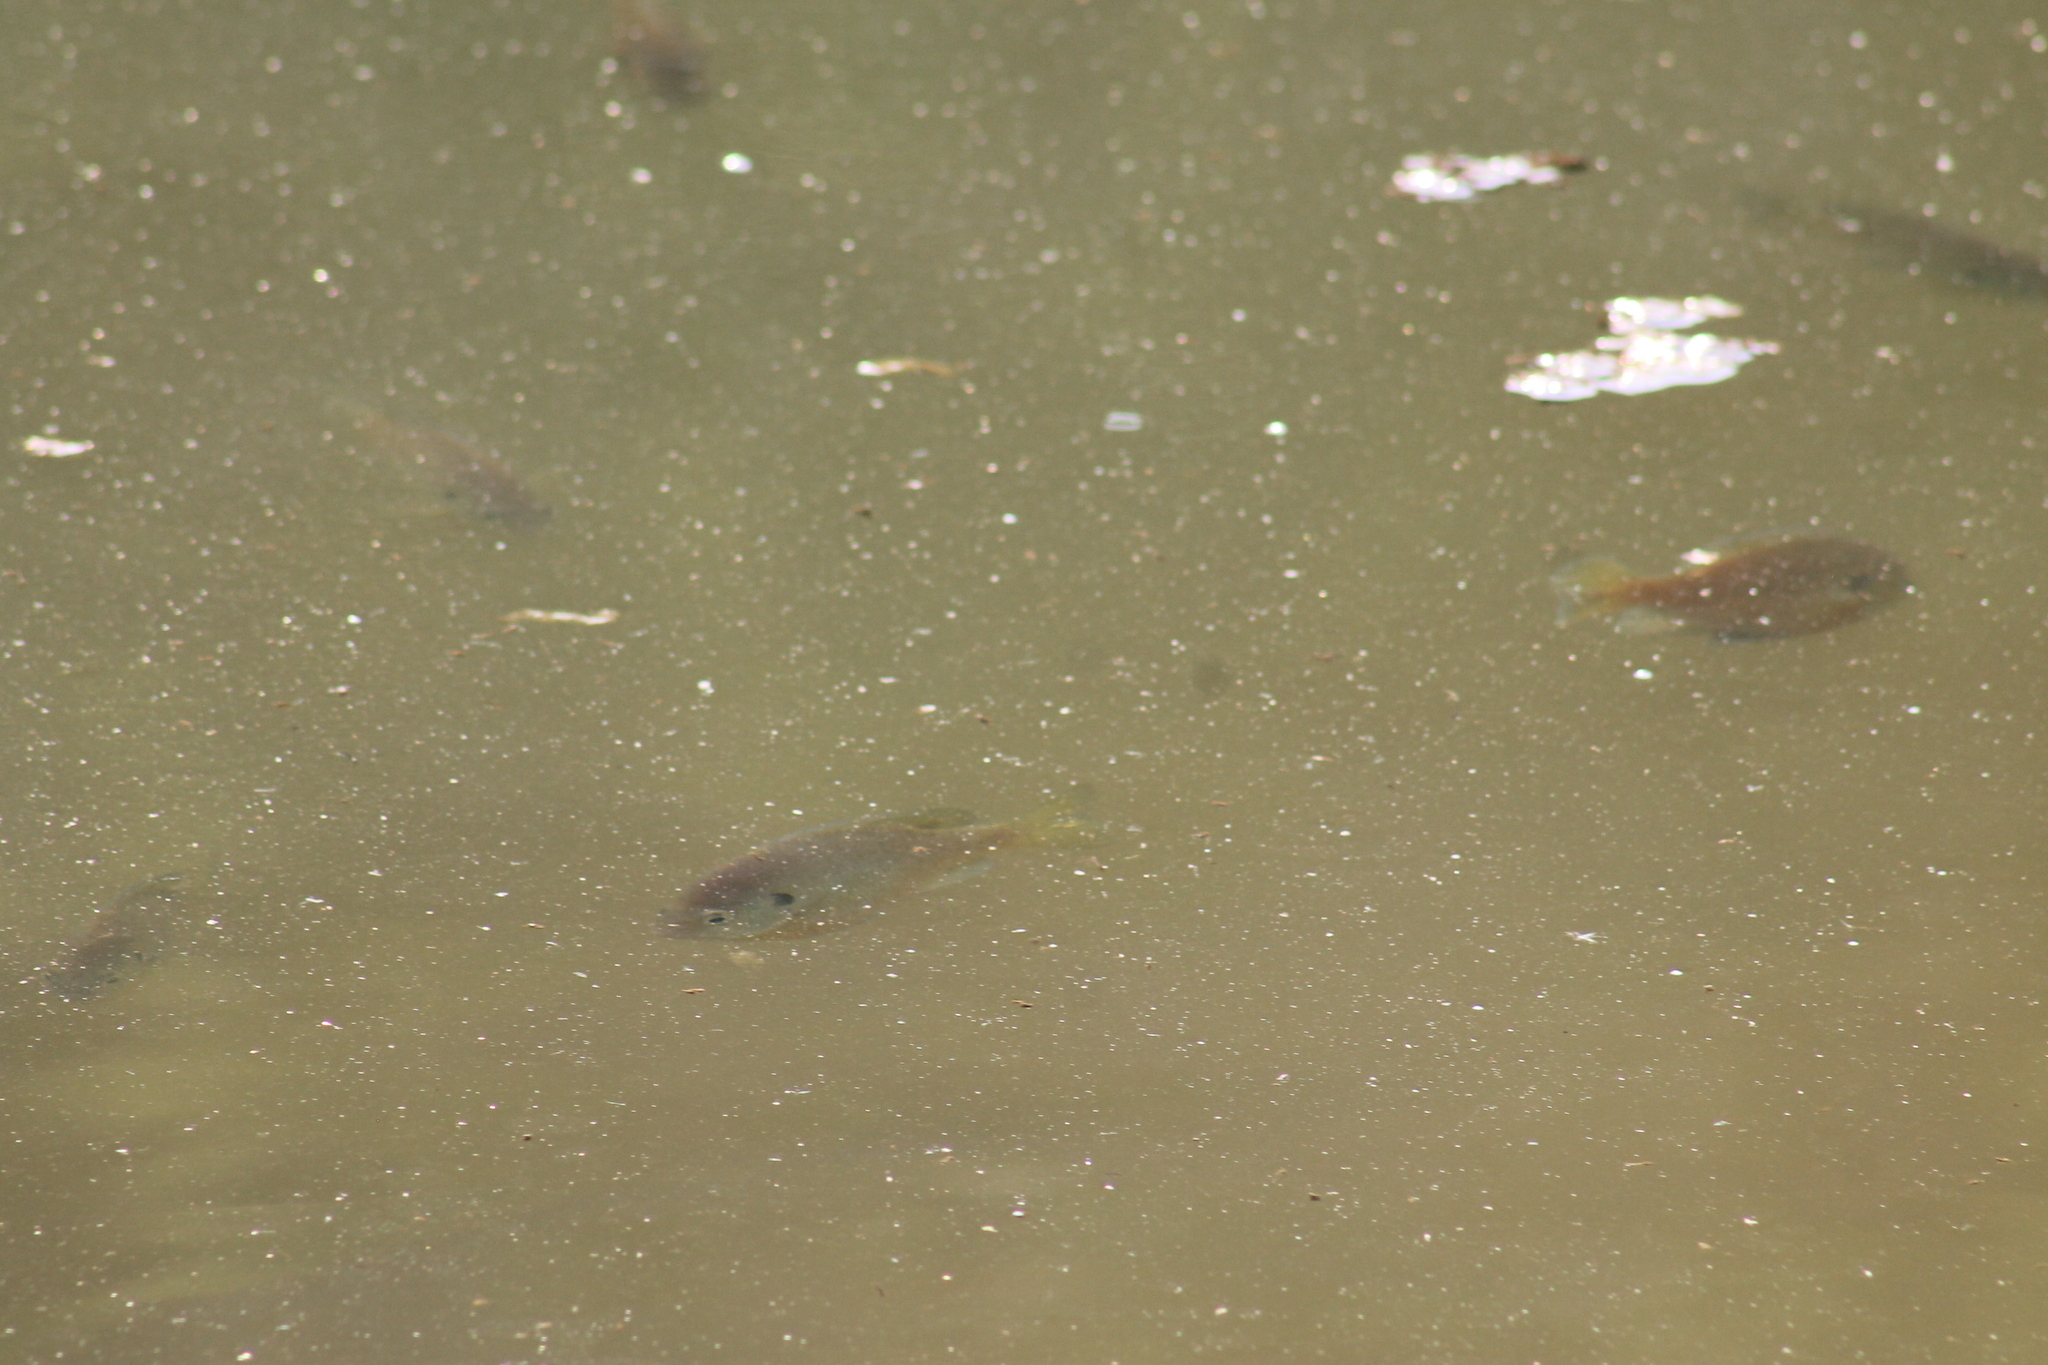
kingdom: Animalia
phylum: Chordata
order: Perciformes
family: Centrarchidae
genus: Lepomis
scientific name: Lepomis macrochirus
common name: Bluegill
